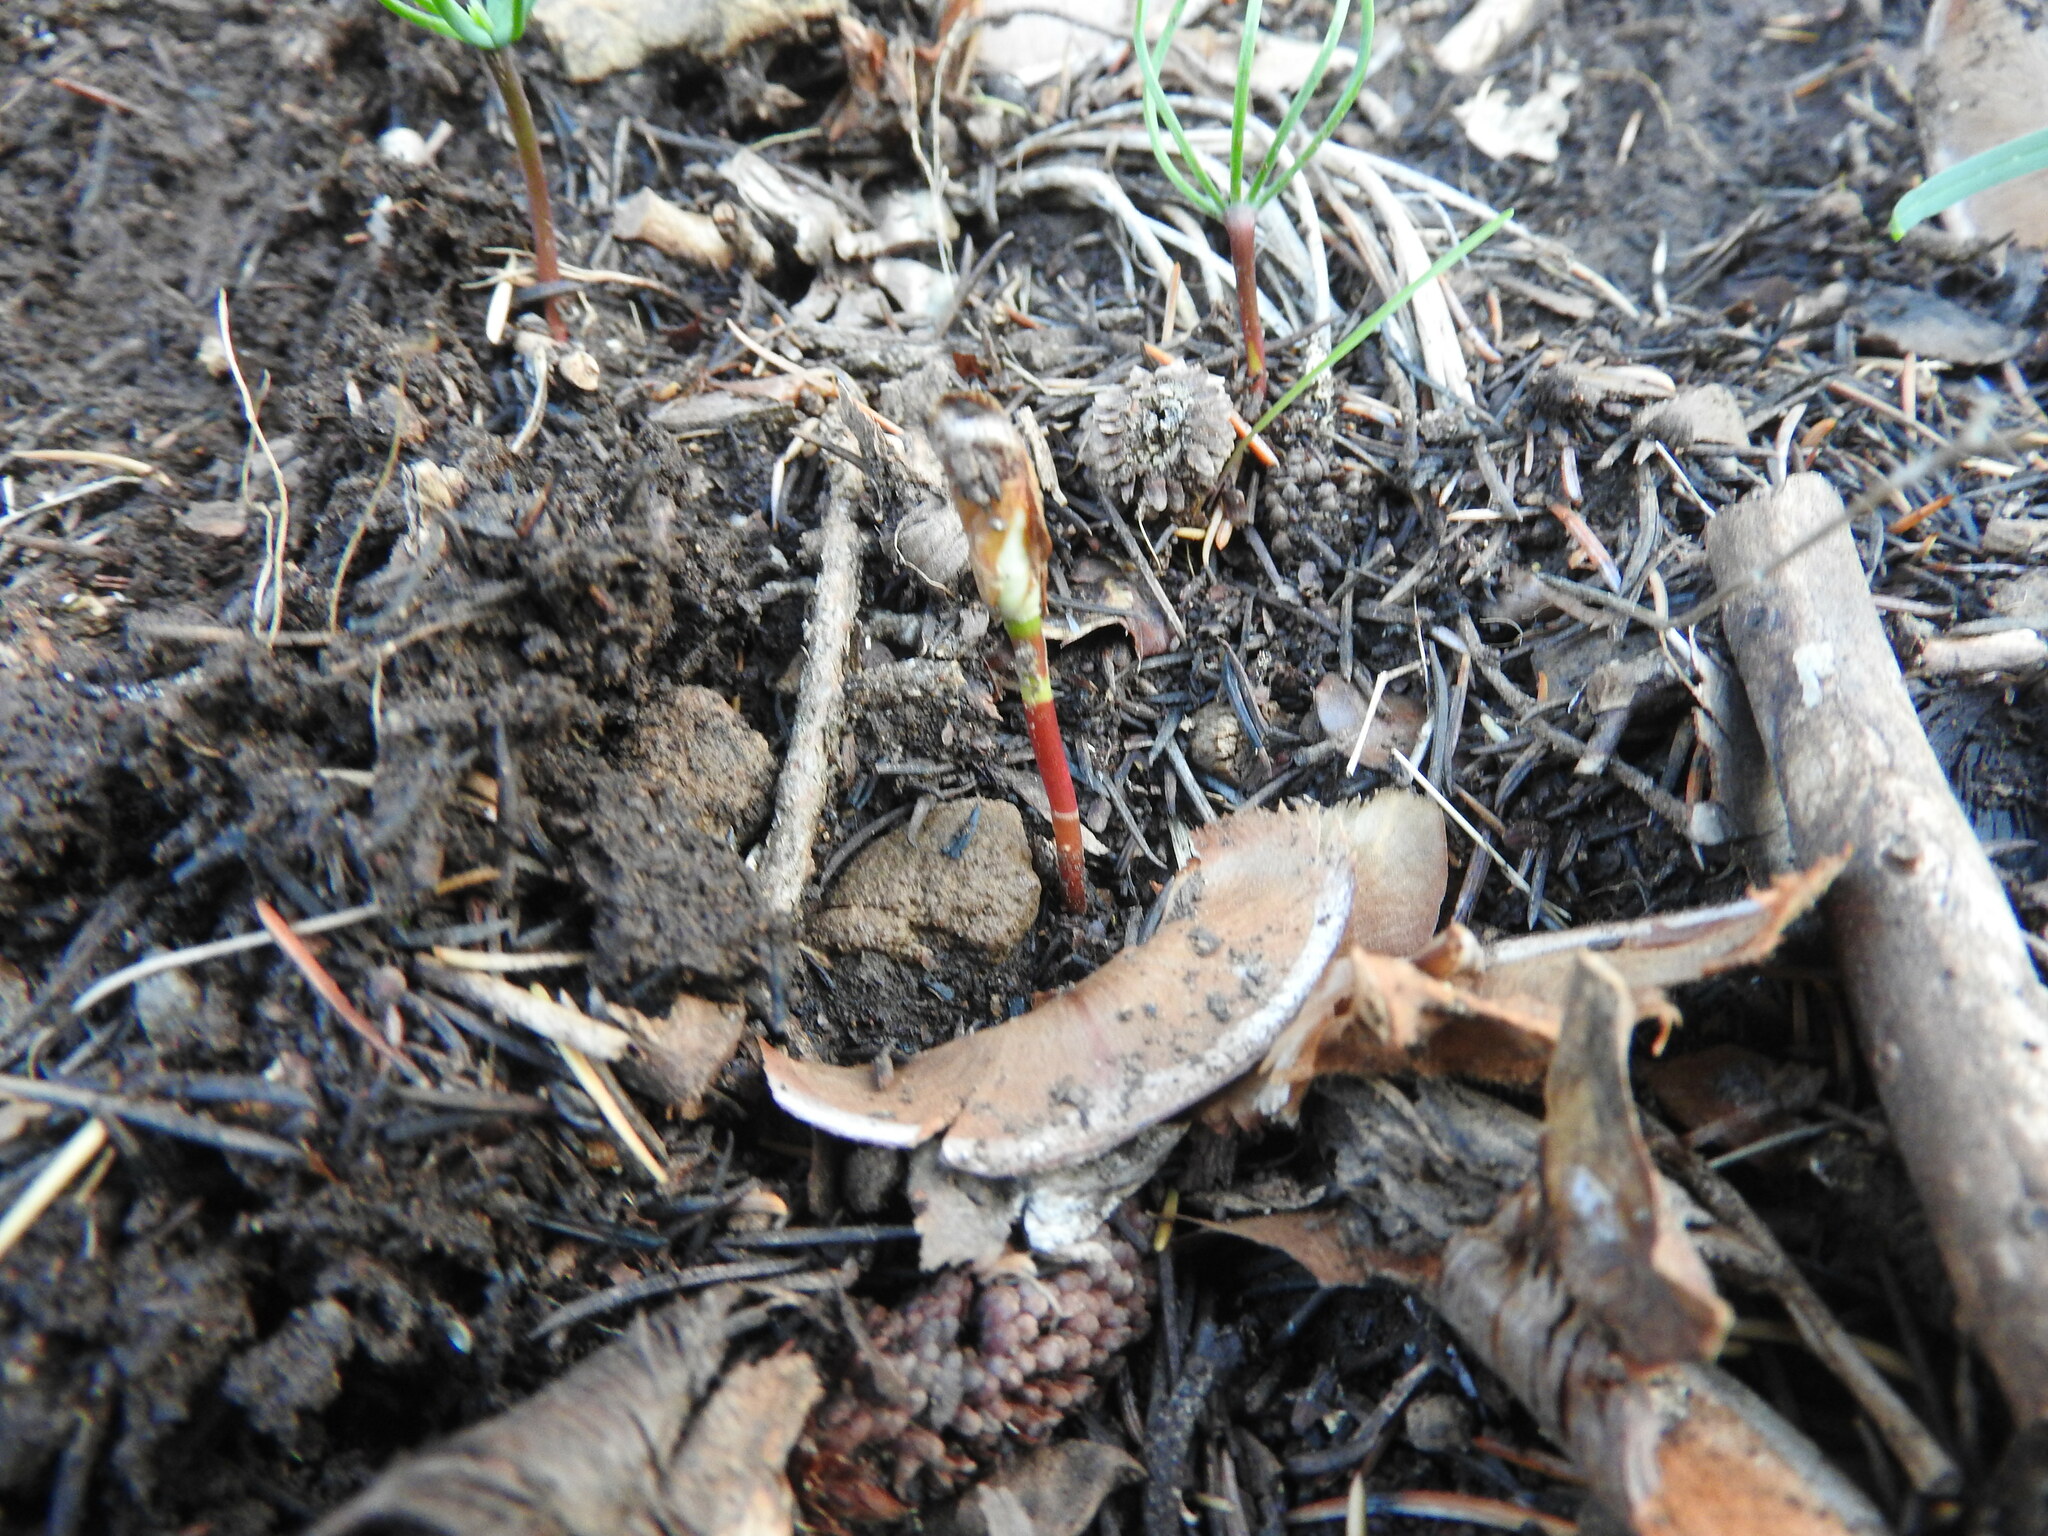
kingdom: Plantae
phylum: Tracheophyta
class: Pinopsida
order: Pinales
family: Pinaceae
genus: Cedrus
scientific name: Cedrus atlantica
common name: Atlas cedar
